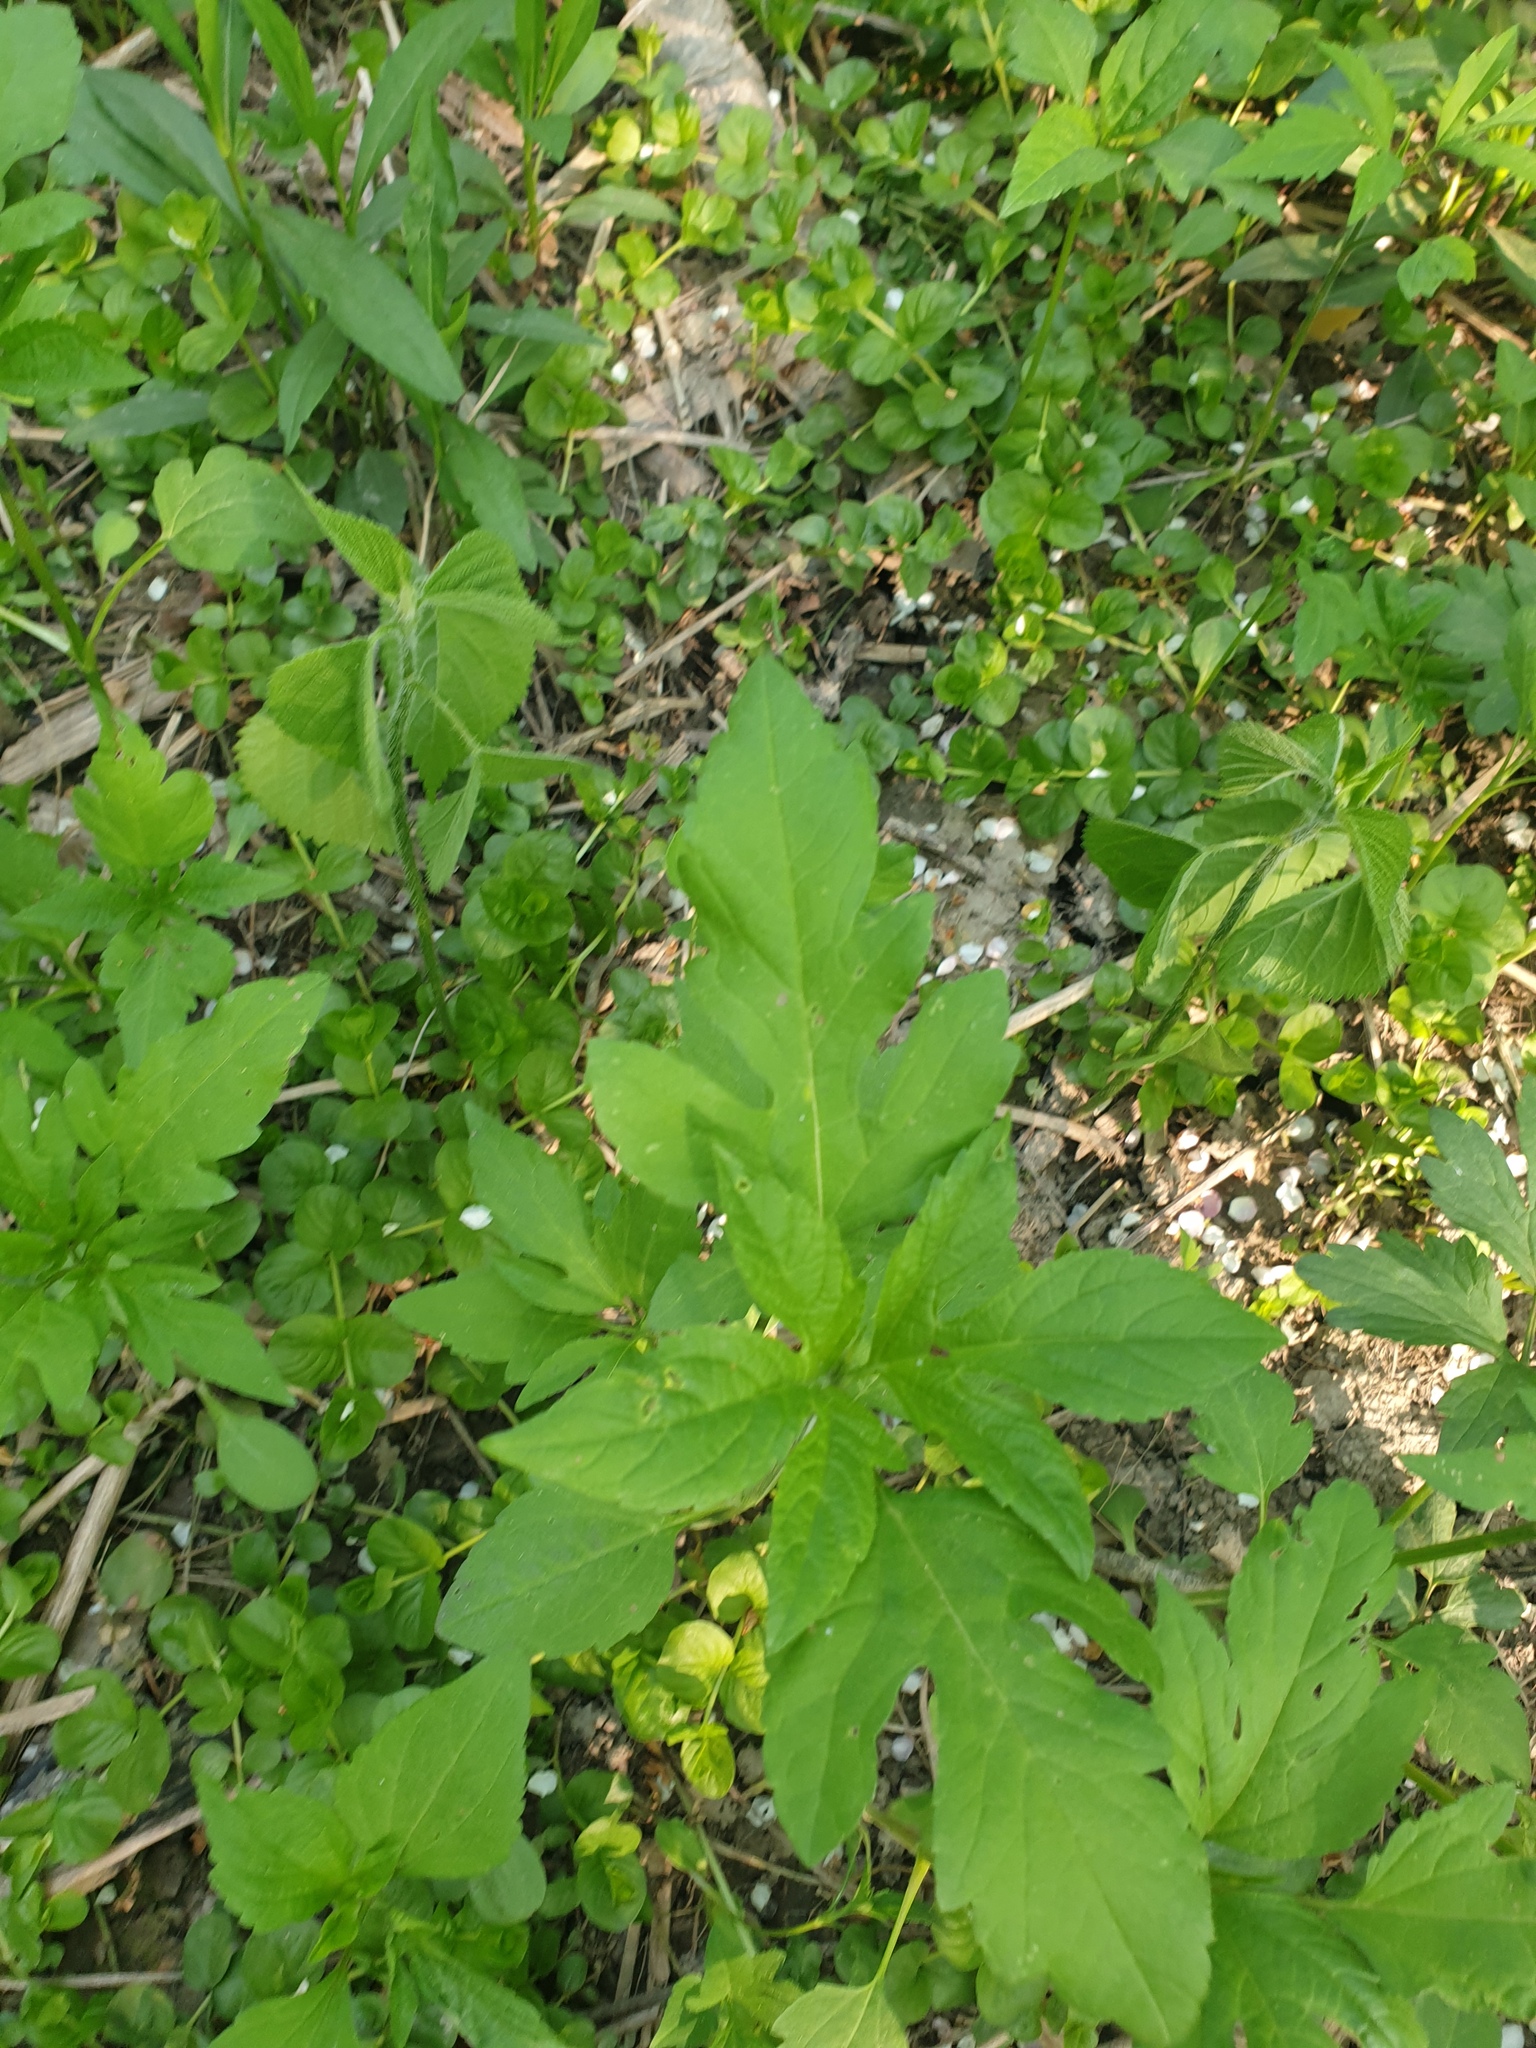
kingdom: Plantae
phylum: Tracheophyta
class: Magnoliopsida
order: Asterales
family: Asteraceae
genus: Ambrosia
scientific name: Ambrosia trifida
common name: Giant ragweed
